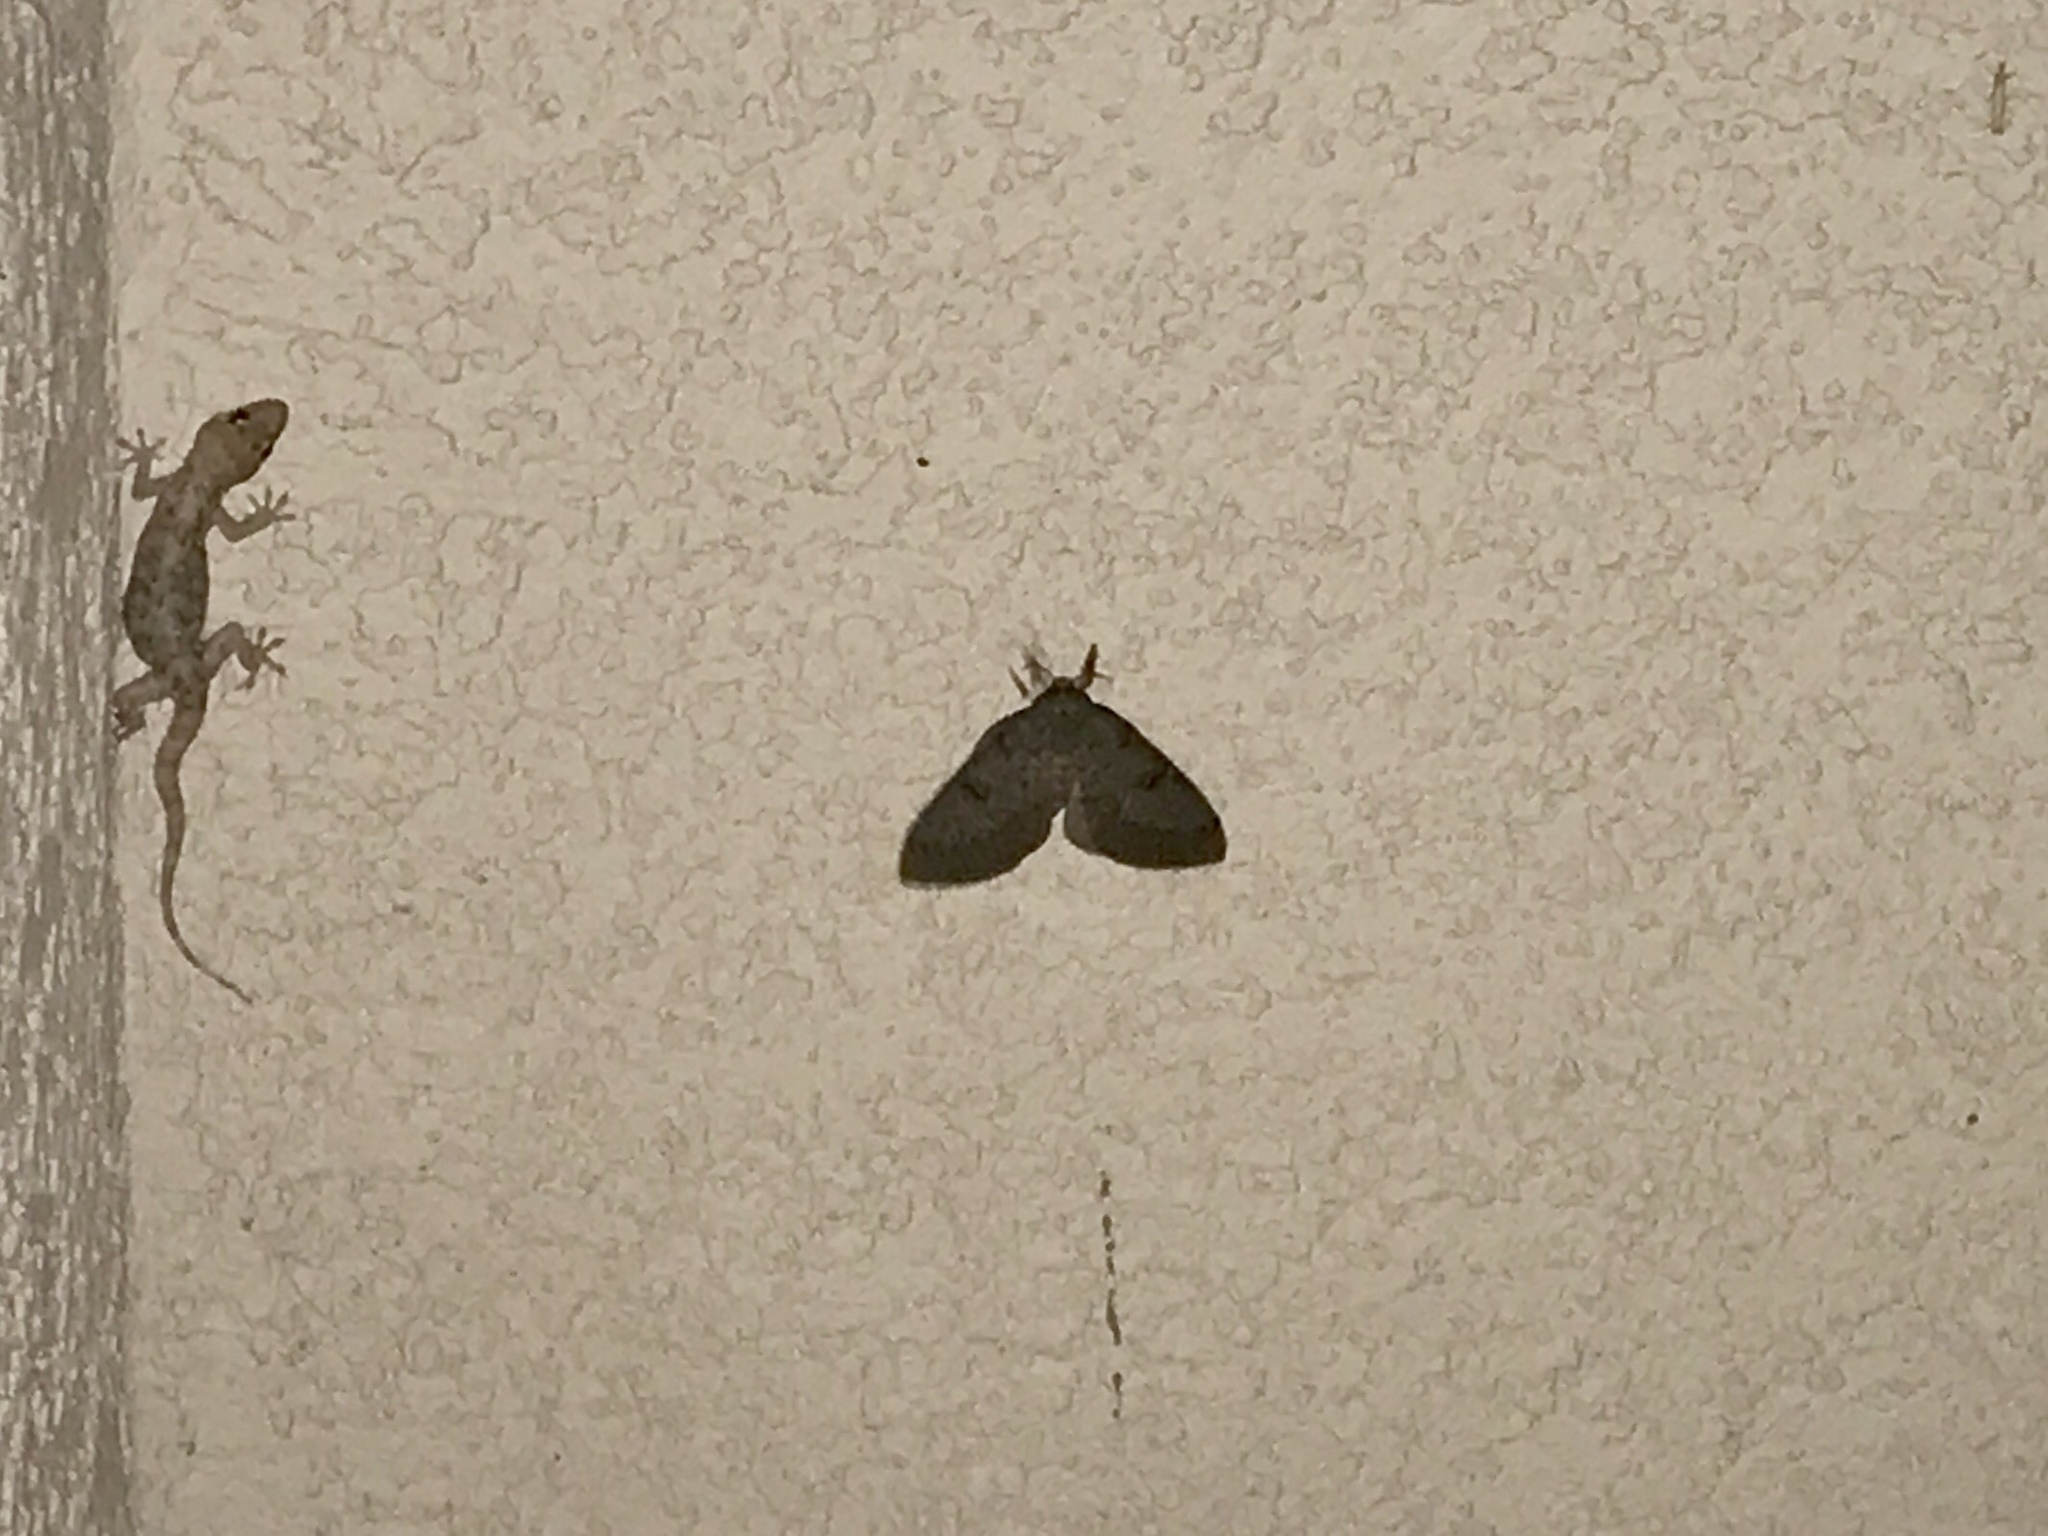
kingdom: Animalia
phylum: Arthropoda
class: Insecta
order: Lepidoptera
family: Saturniidae
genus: Syssphinx
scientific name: Syssphinx hubbardi
